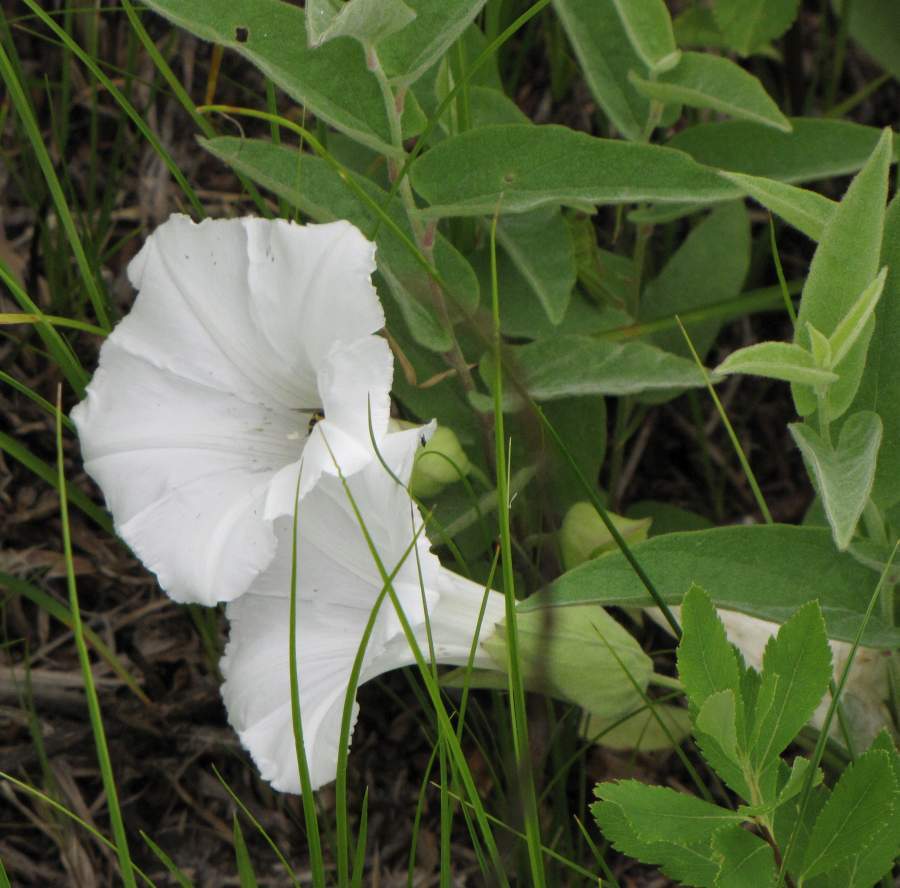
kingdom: Plantae
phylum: Tracheophyta
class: Magnoliopsida
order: Solanales
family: Convolvulaceae
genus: Calystegia
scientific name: Calystegia spithamaea
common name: Dwarf bindweed
